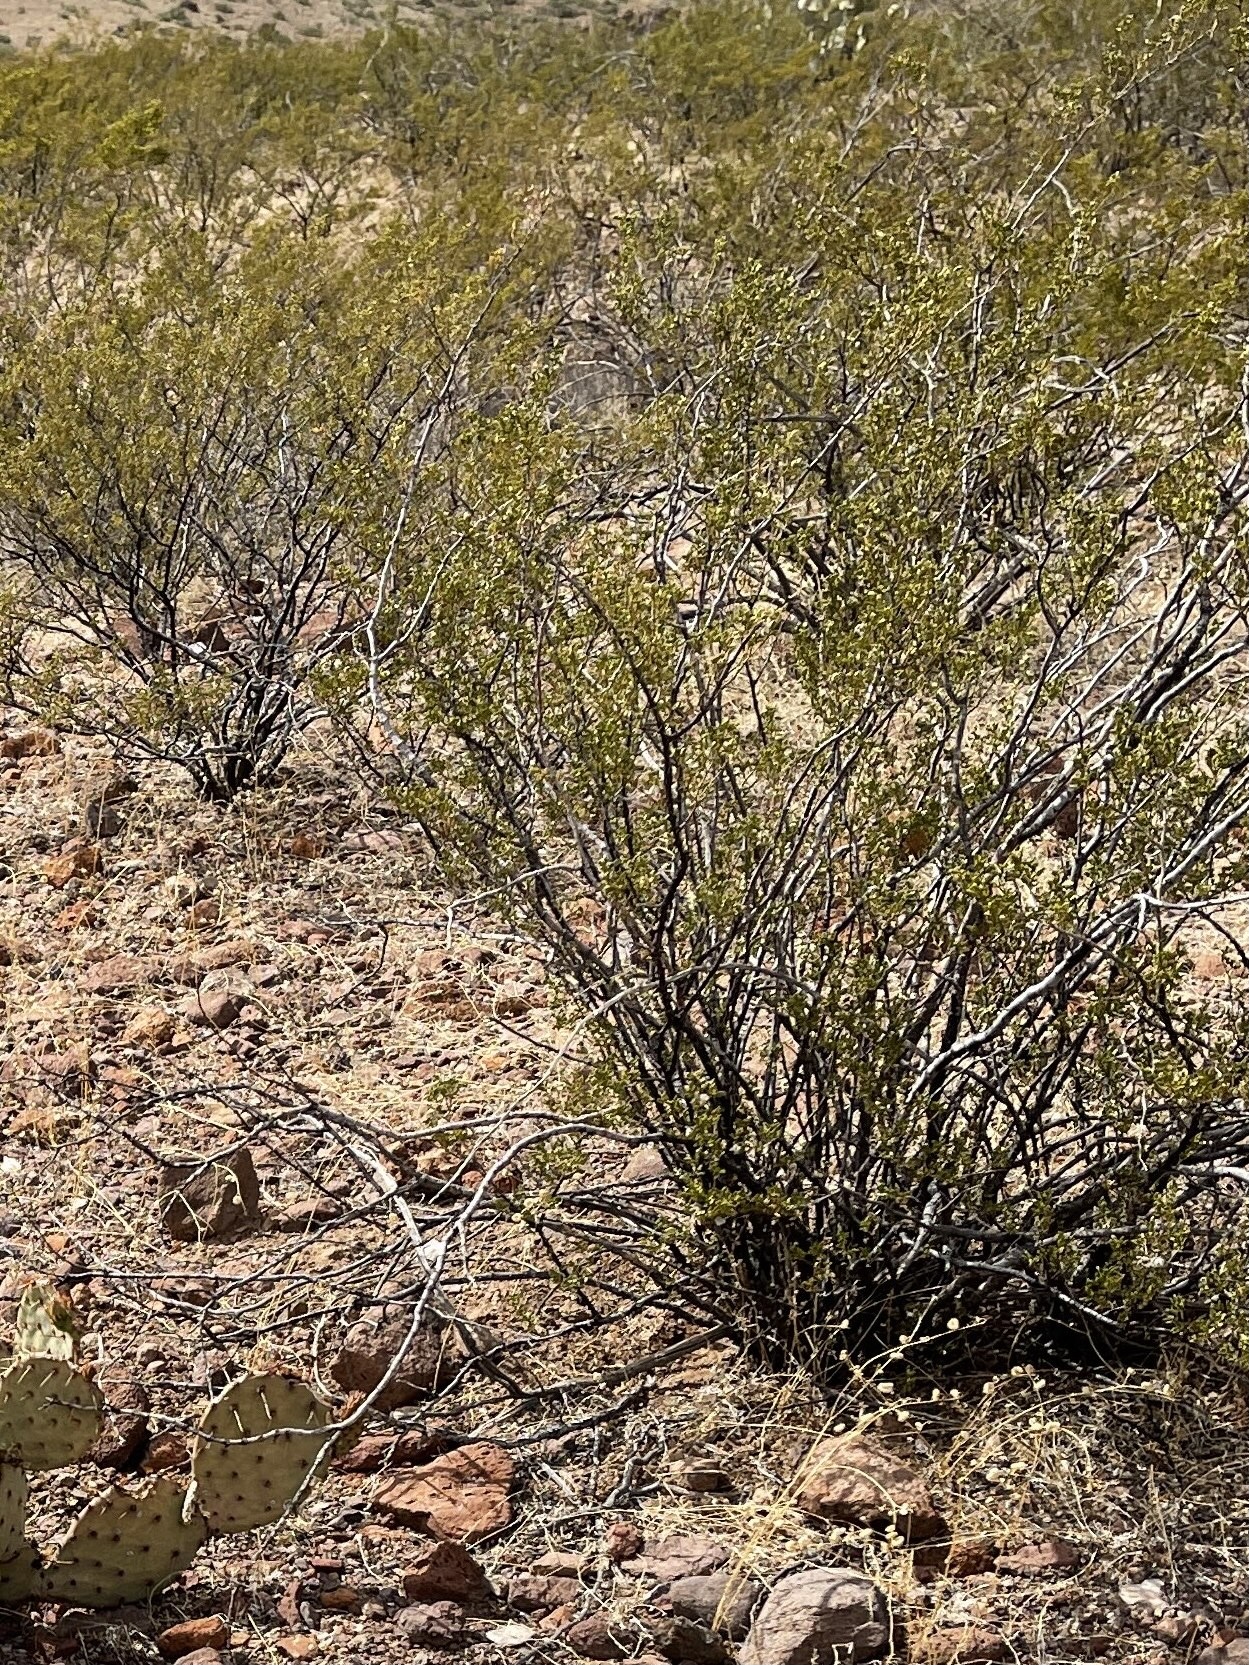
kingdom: Plantae
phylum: Tracheophyta
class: Magnoliopsida
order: Zygophyllales
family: Zygophyllaceae
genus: Larrea
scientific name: Larrea tridentata
